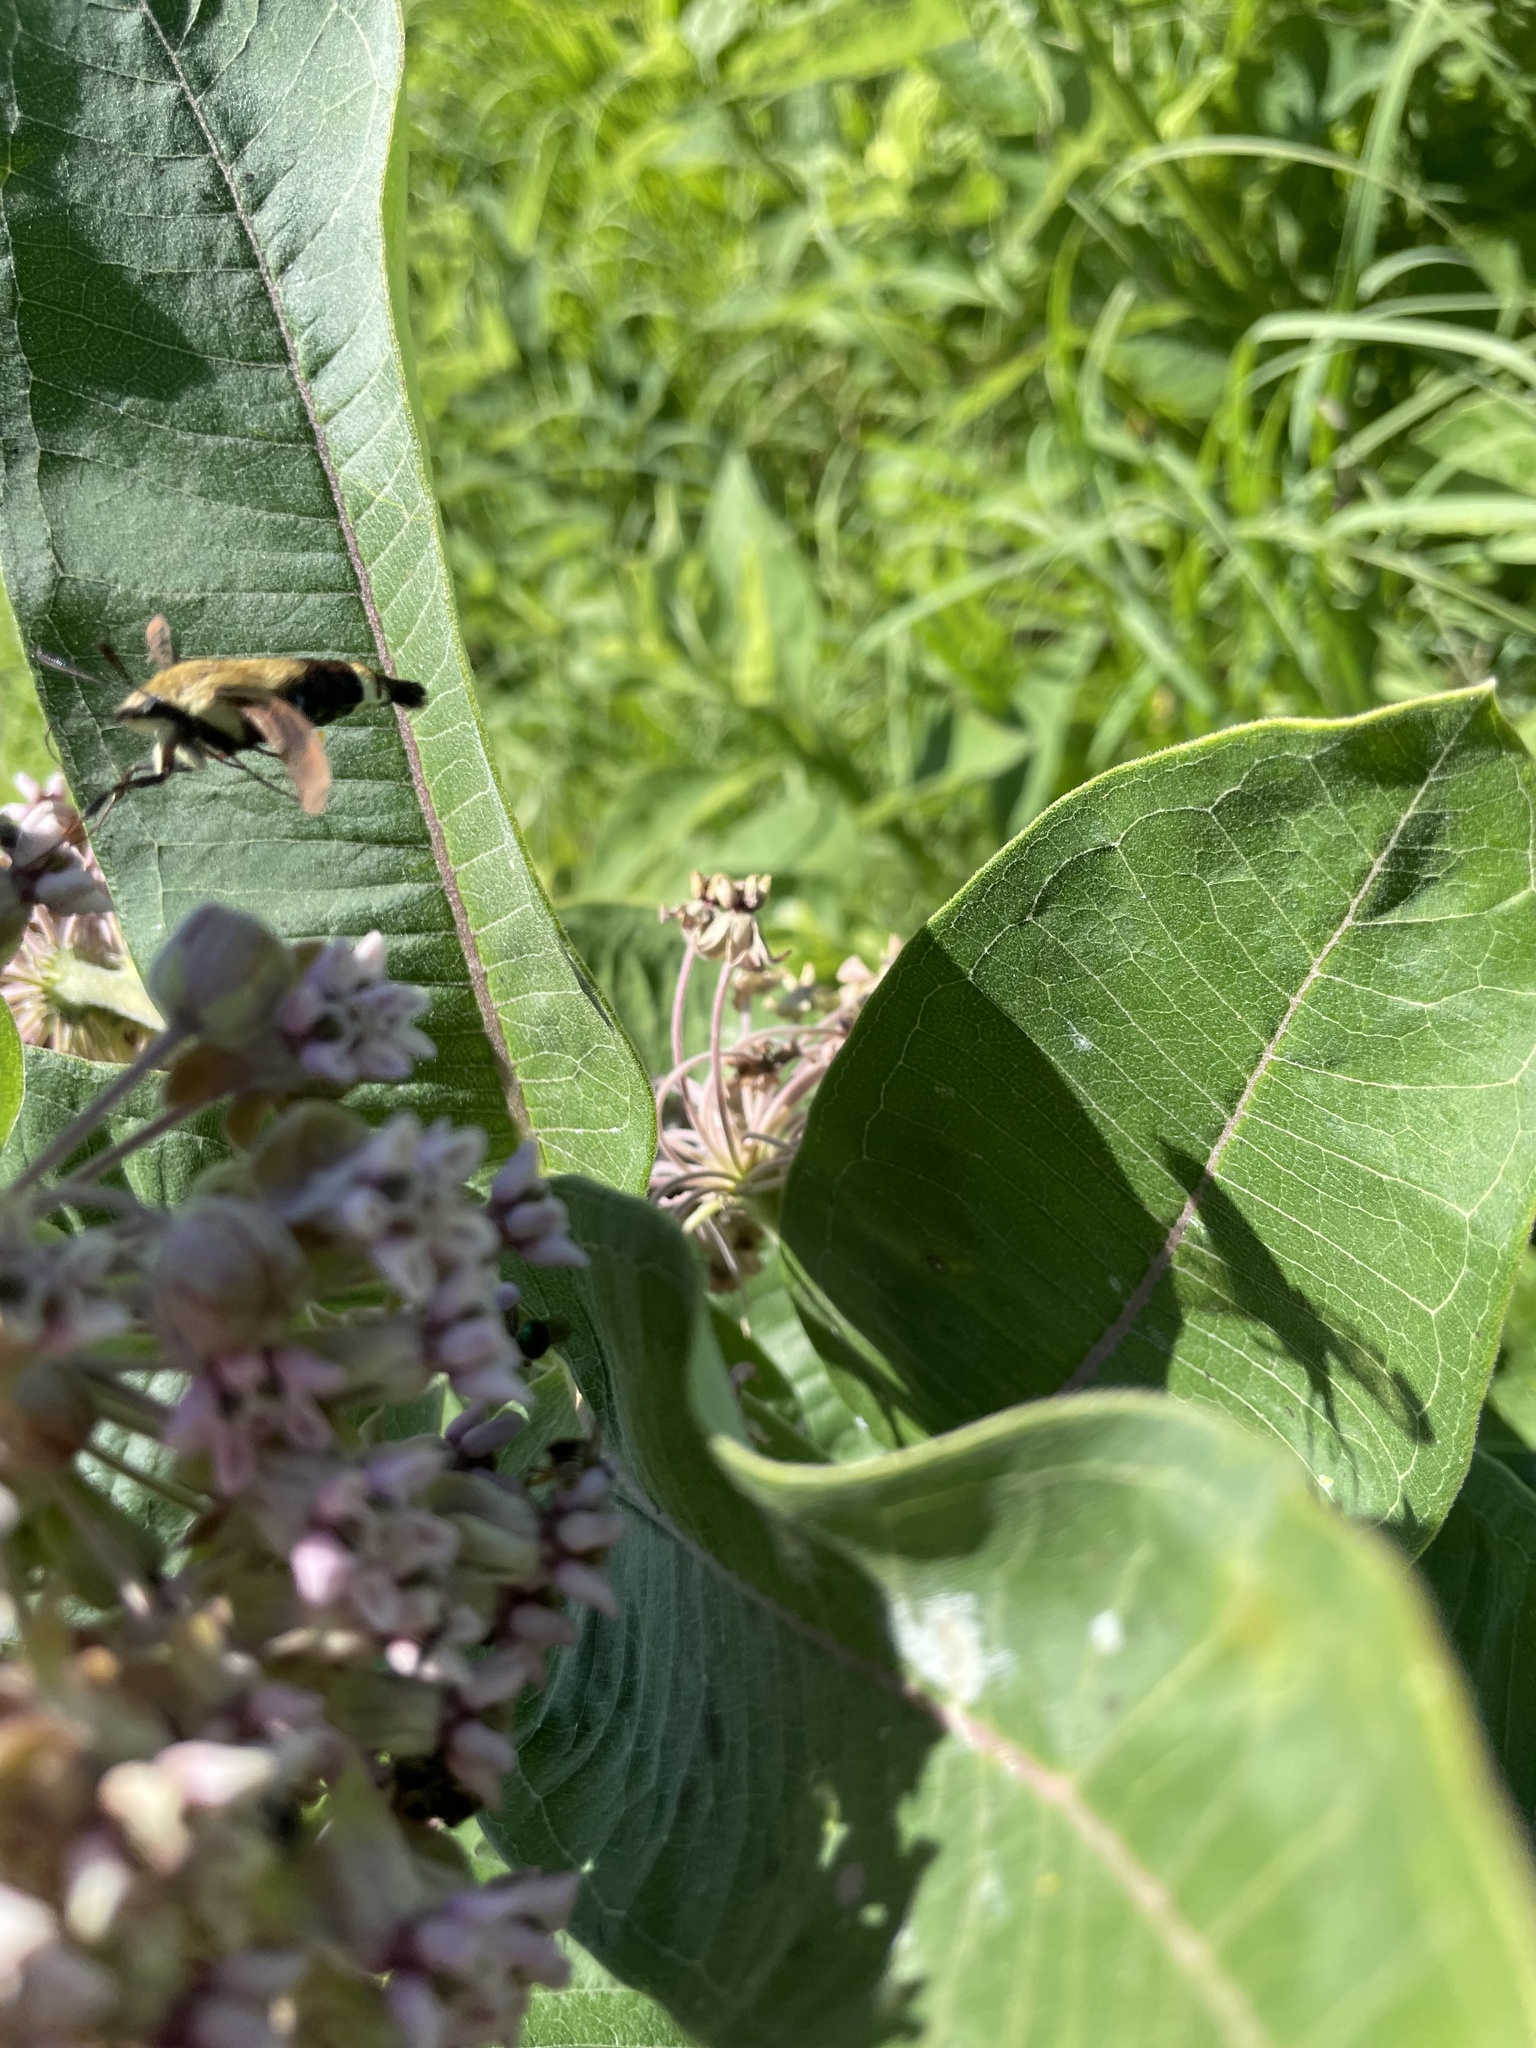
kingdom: Animalia
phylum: Arthropoda
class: Insecta
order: Lepidoptera
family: Sphingidae
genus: Hemaris
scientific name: Hemaris diffinis
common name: Bumblebee moth
